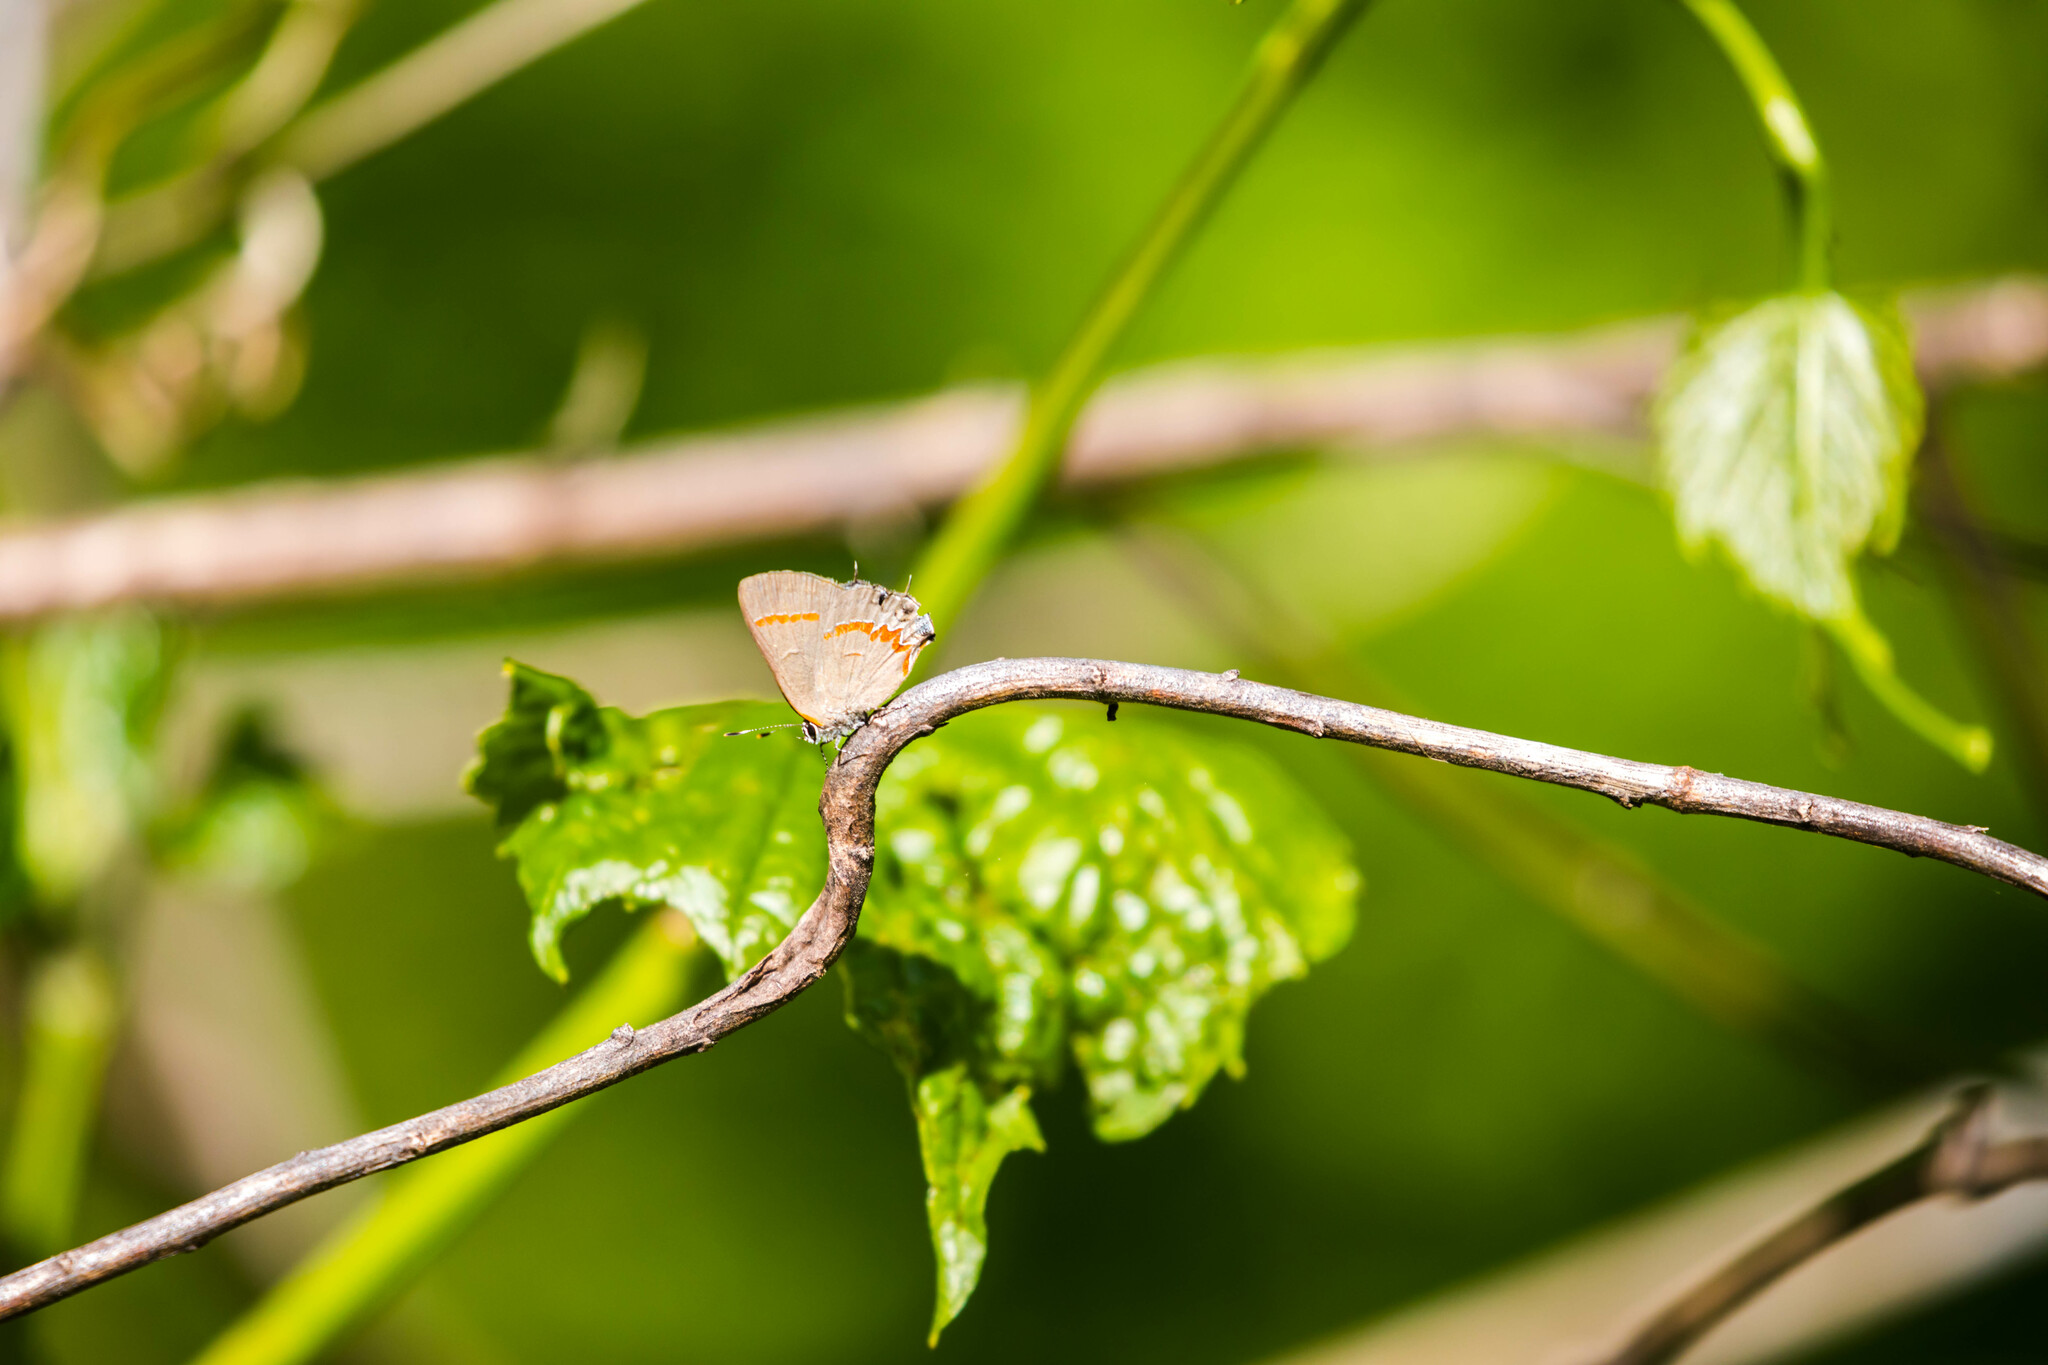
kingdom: Animalia
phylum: Arthropoda
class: Insecta
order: Lepidoptera
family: Lycaenidae
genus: Calycopis
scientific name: Calycopis cecrops
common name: Red-banded hairstreak
